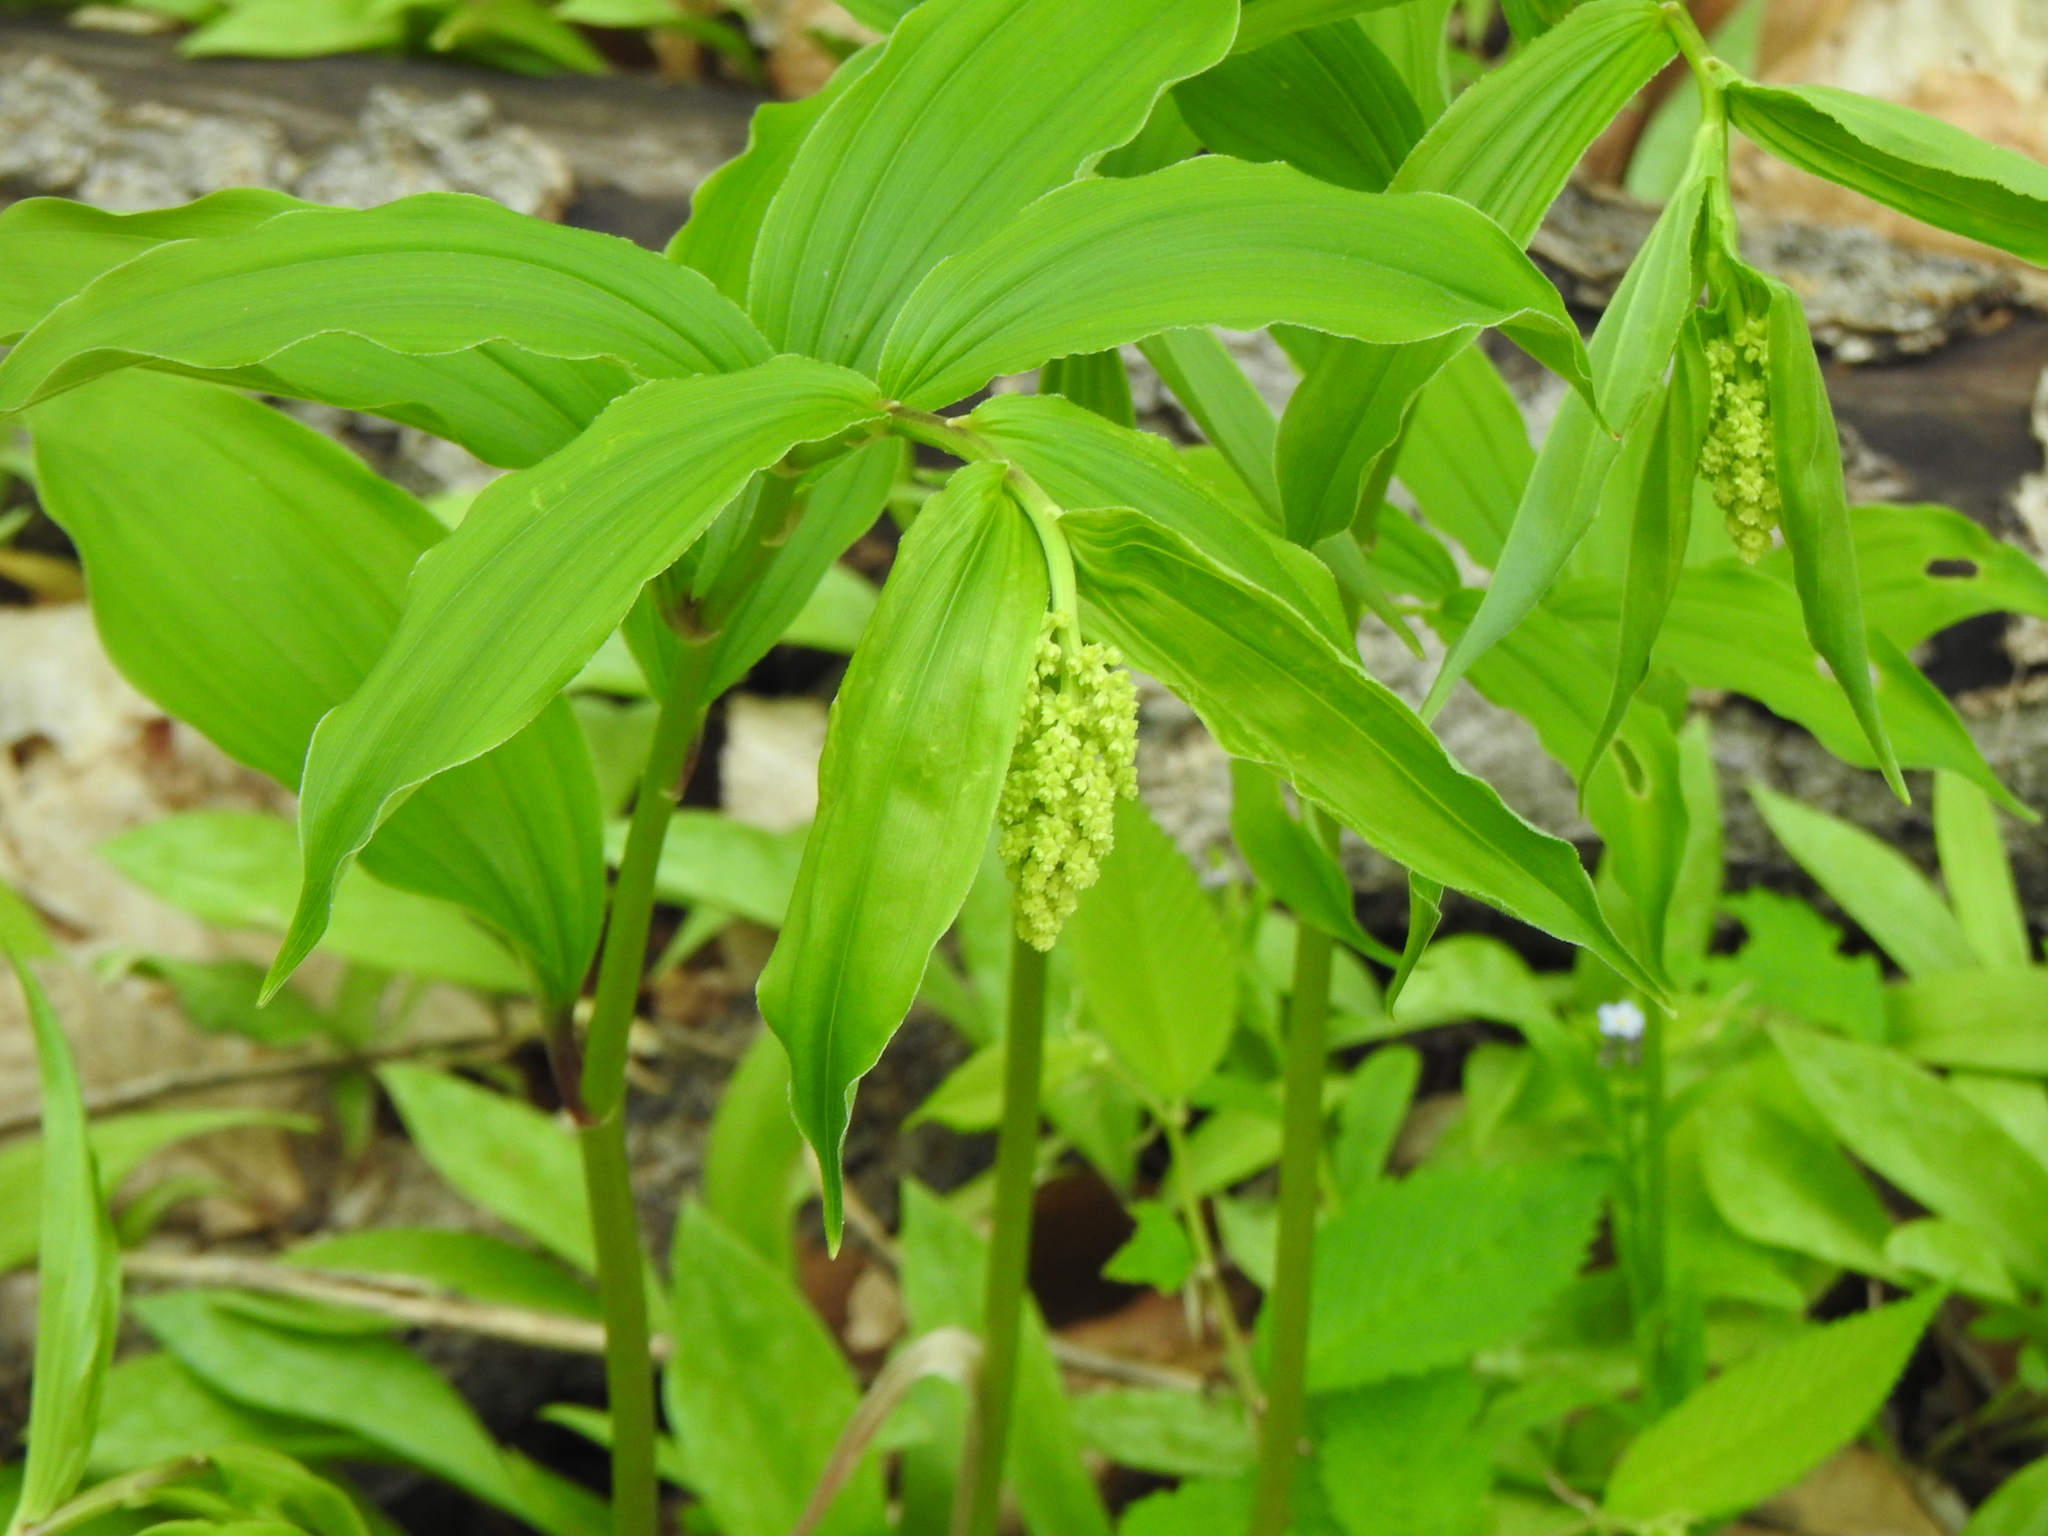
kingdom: Plantae
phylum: Tracheophyta
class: Liliopsida
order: Asparagales
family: Asparagaceae
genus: Maianthemum
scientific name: Maianthemum racemosum
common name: False spikenard
